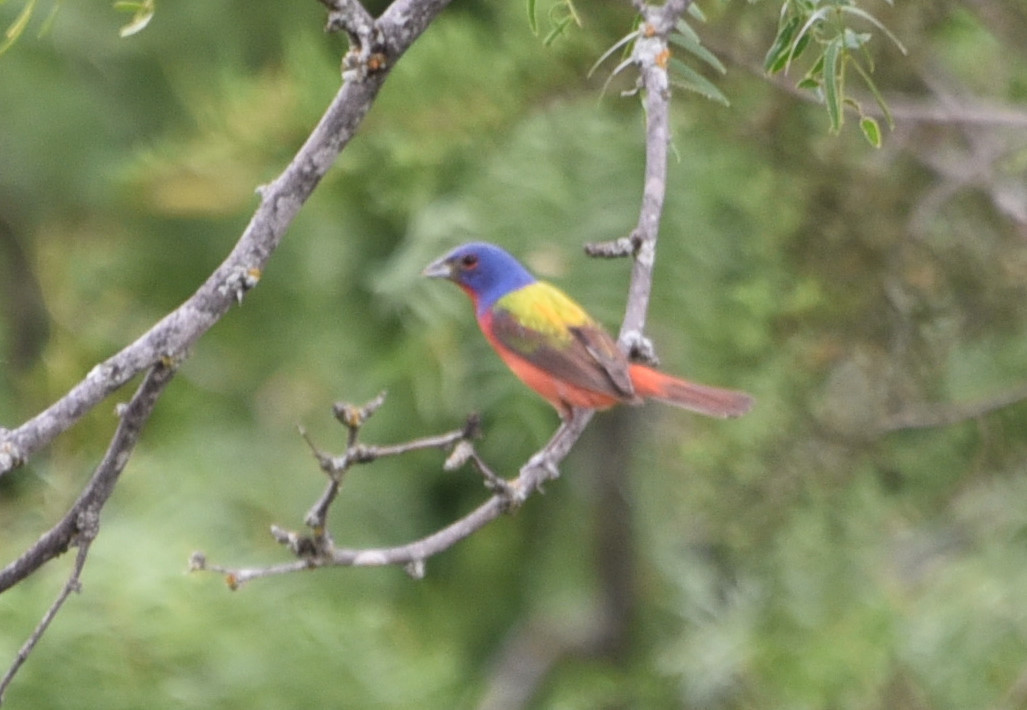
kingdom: Animalia
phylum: Chordata
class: Aves
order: Passeriformes
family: Cardinalidae
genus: Passerina
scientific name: Passerina ciris
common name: Painted bunting
